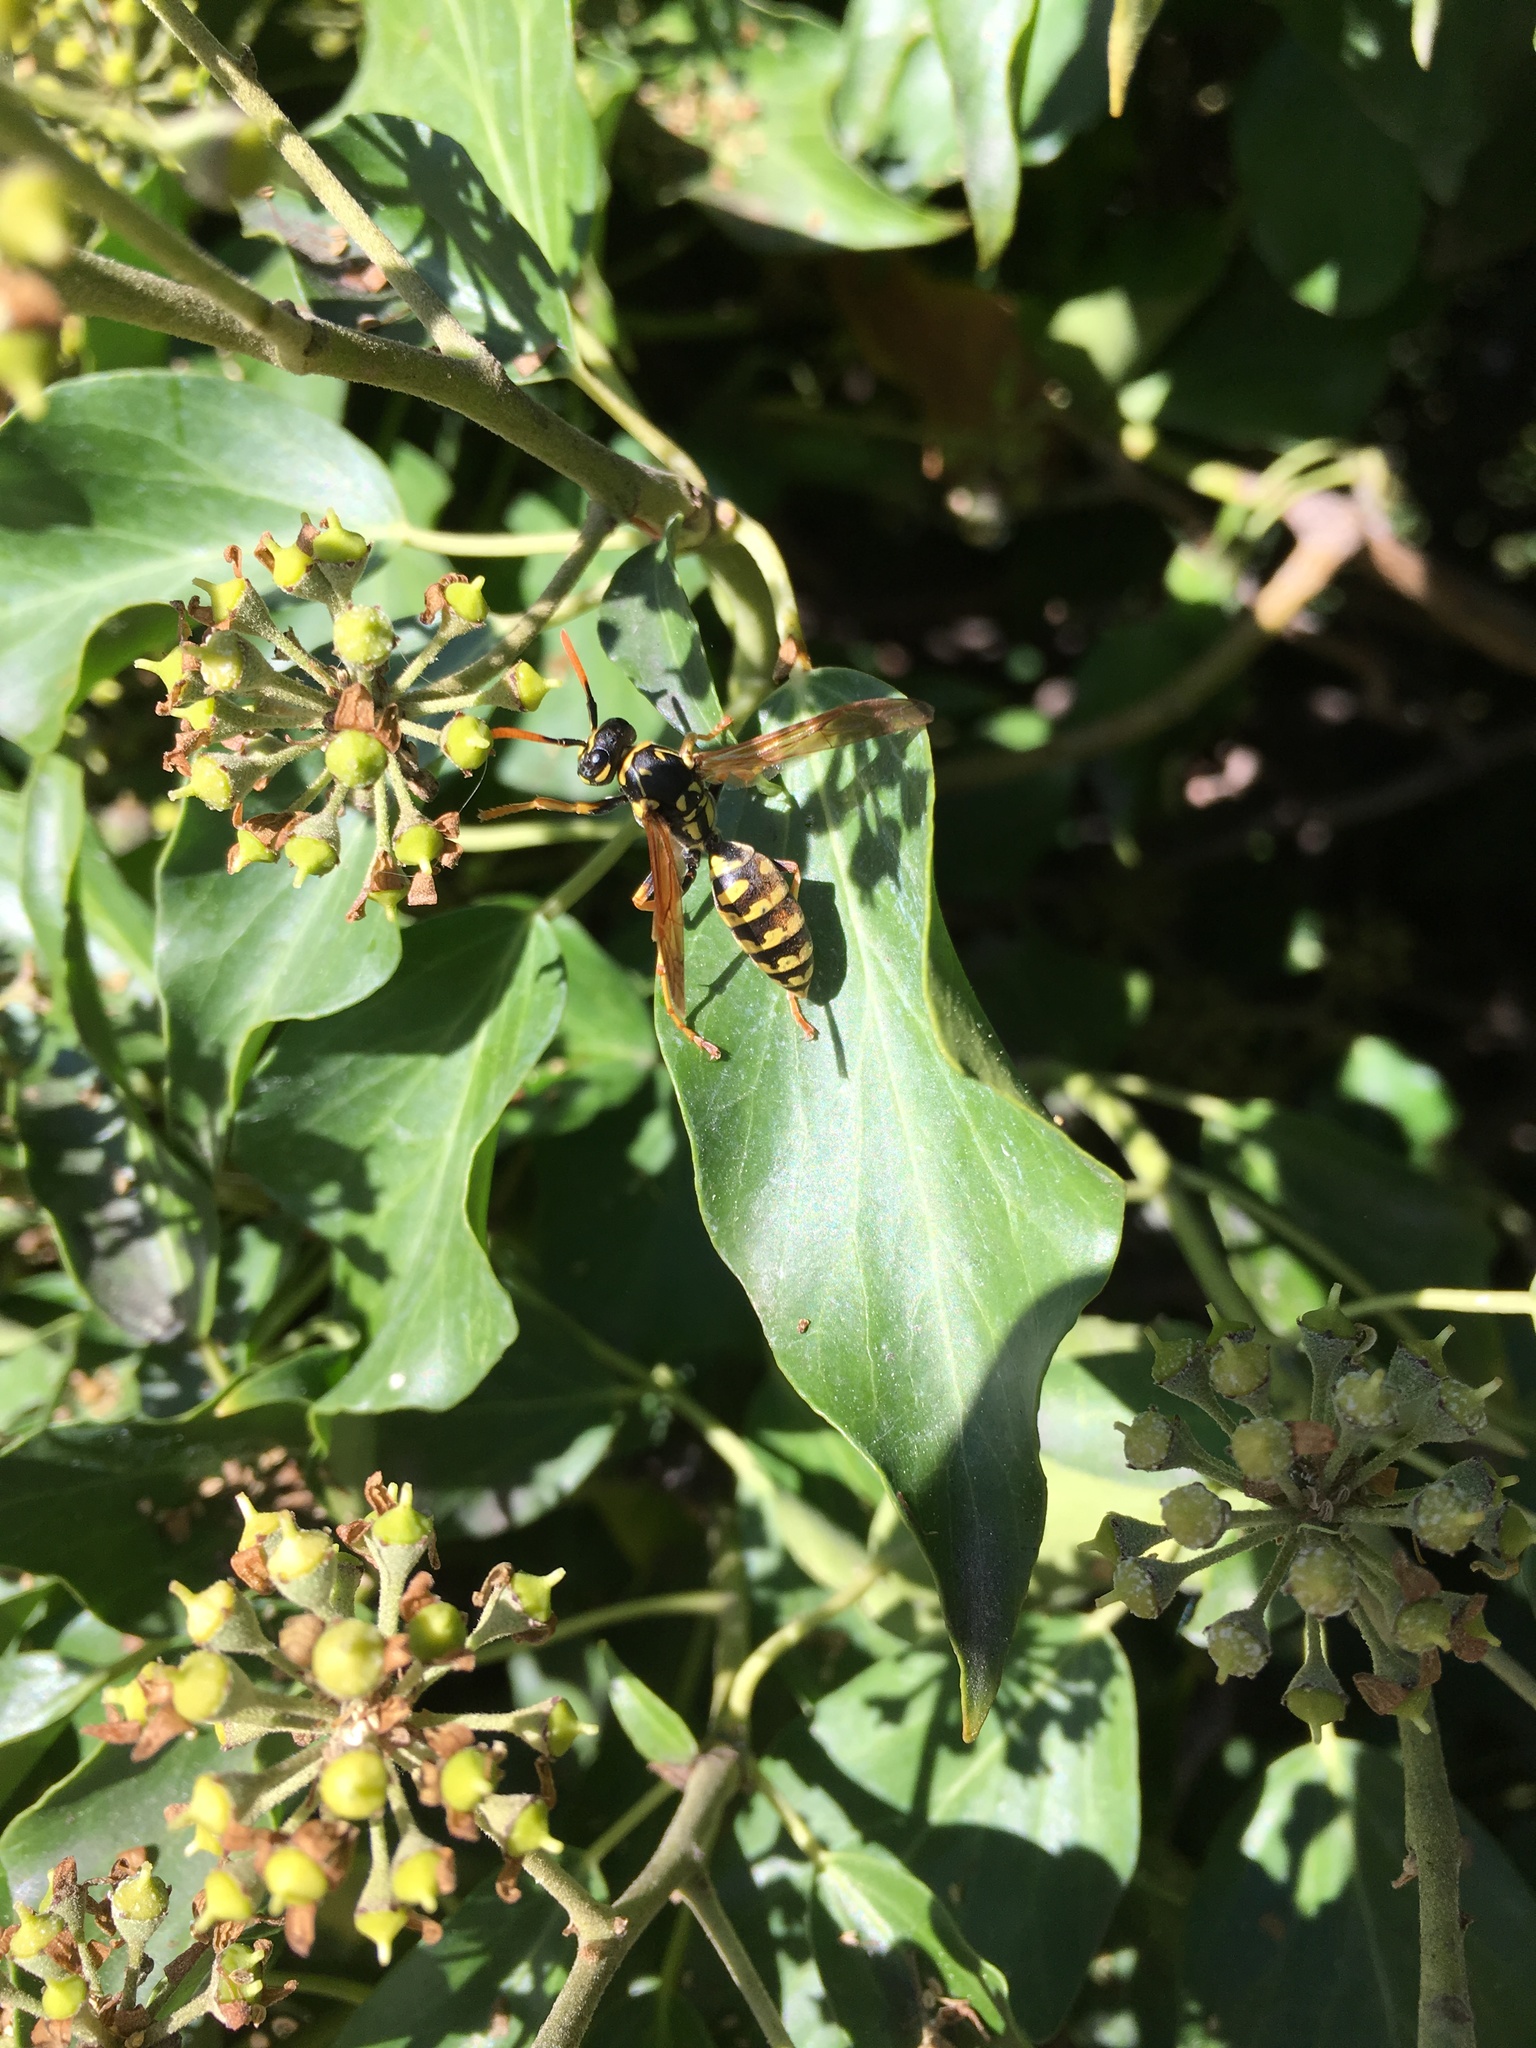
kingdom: Animalia
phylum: Arthropoda
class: Insecta
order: Hymenoptera
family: Eumenidae
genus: Polistes
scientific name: Polistes gallicus
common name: Paper wasp
